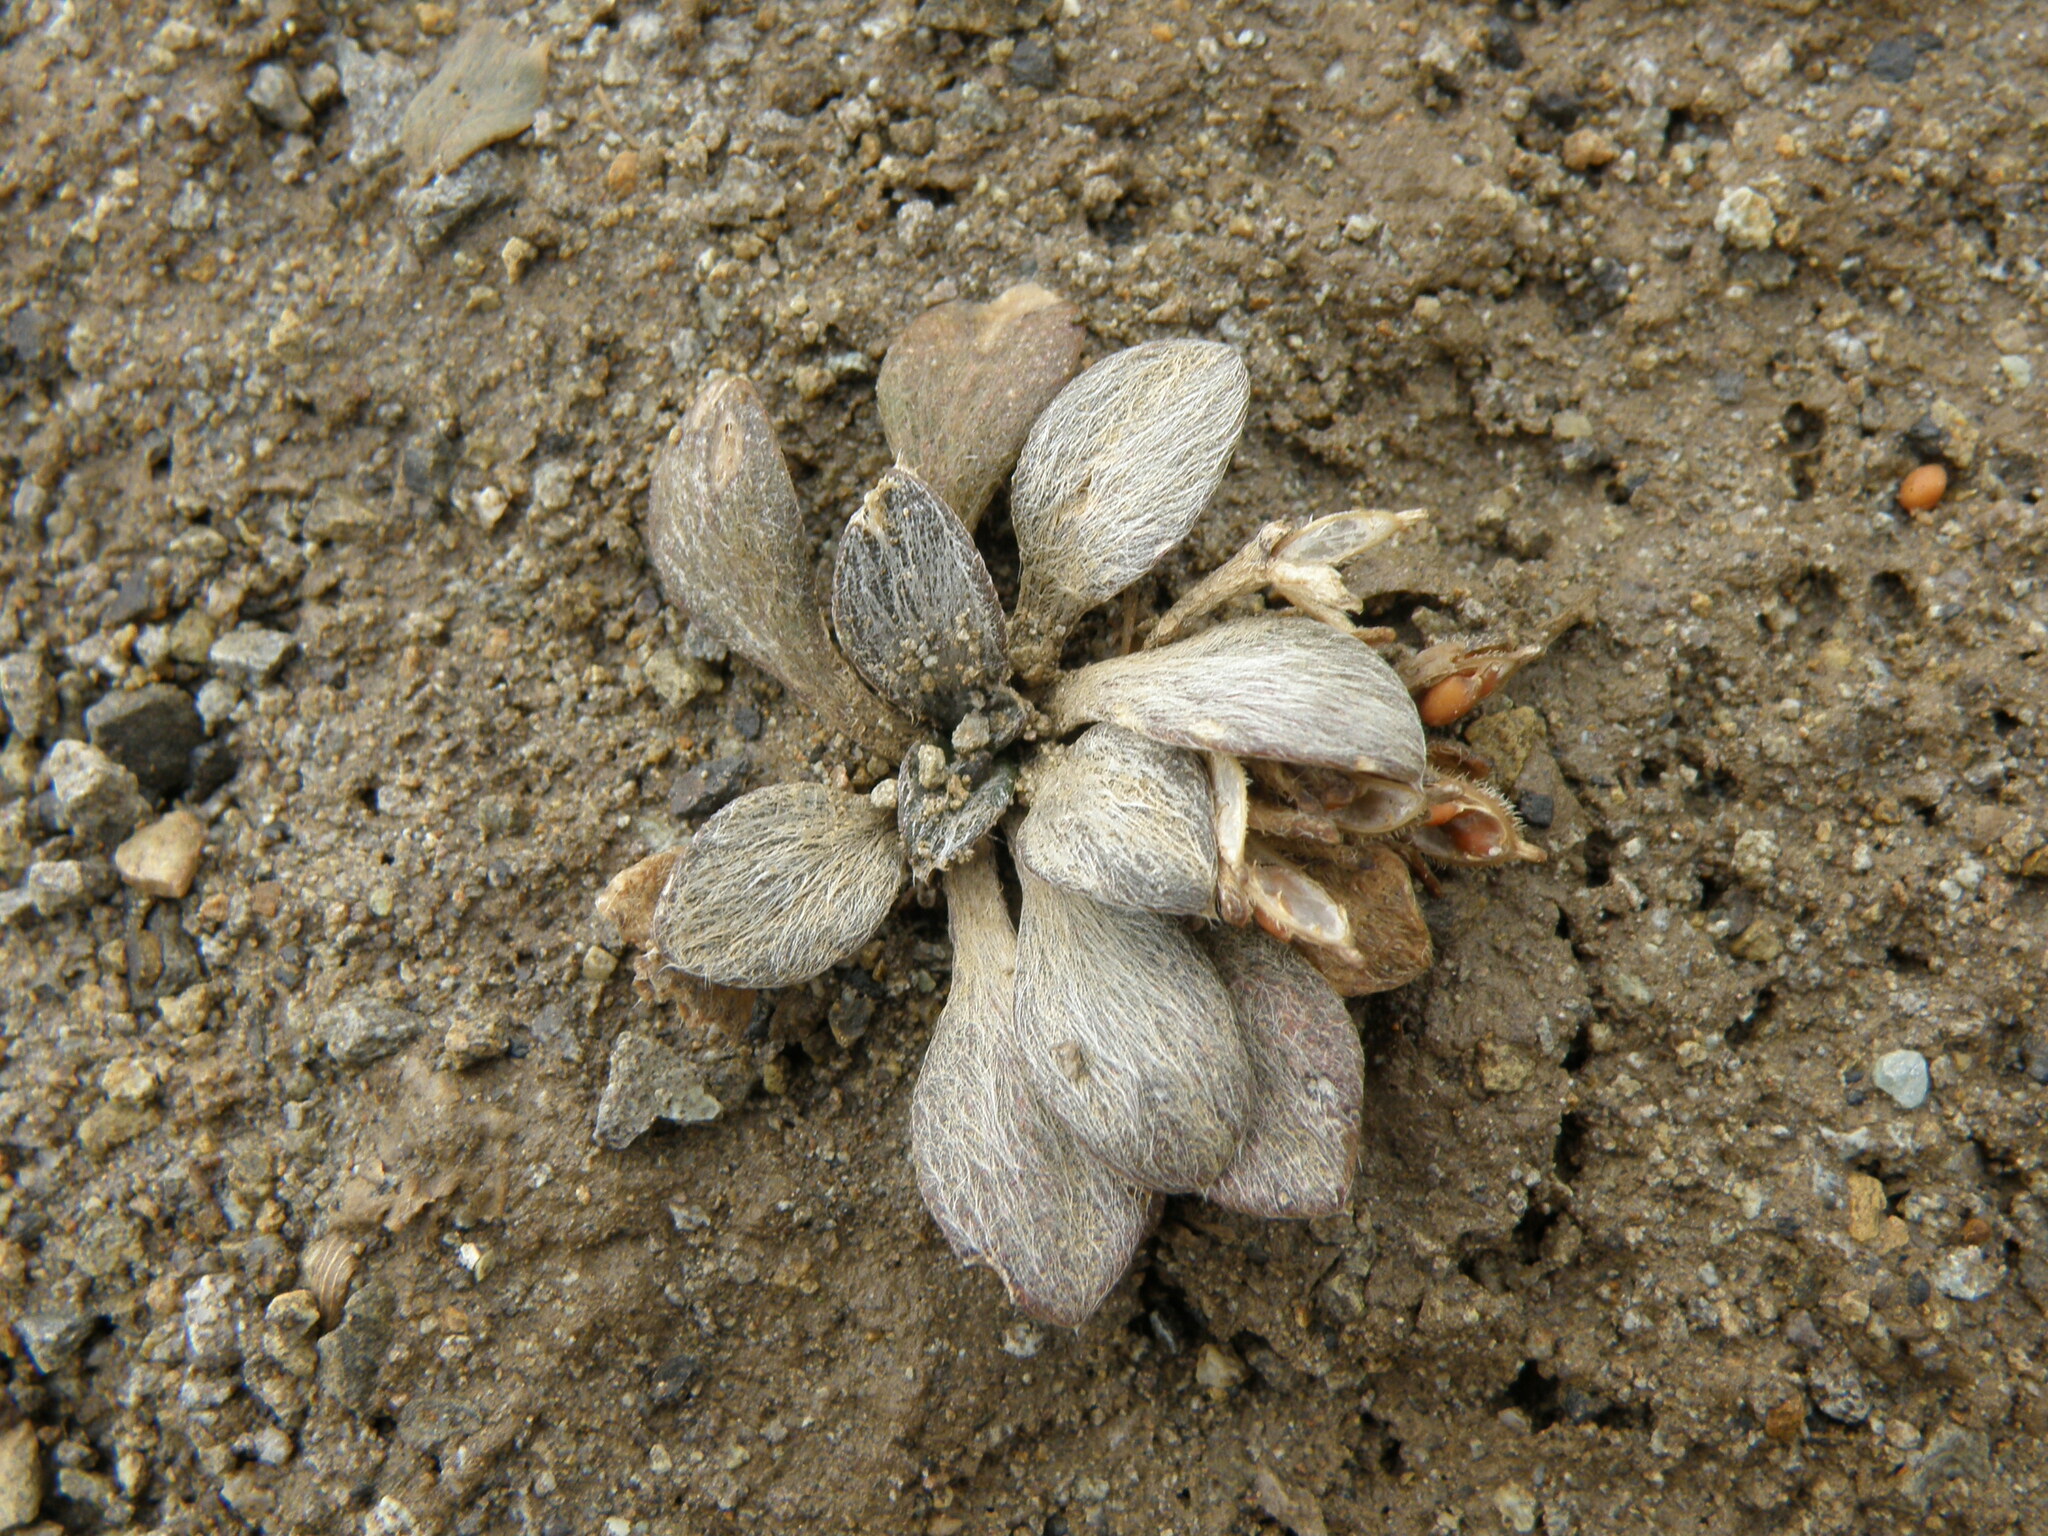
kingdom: Plantae
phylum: Tracheophyta
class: Magnoliopsida
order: Brassicales
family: Brassicaceae
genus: Englerocharis
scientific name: Englerocharis peruviana
